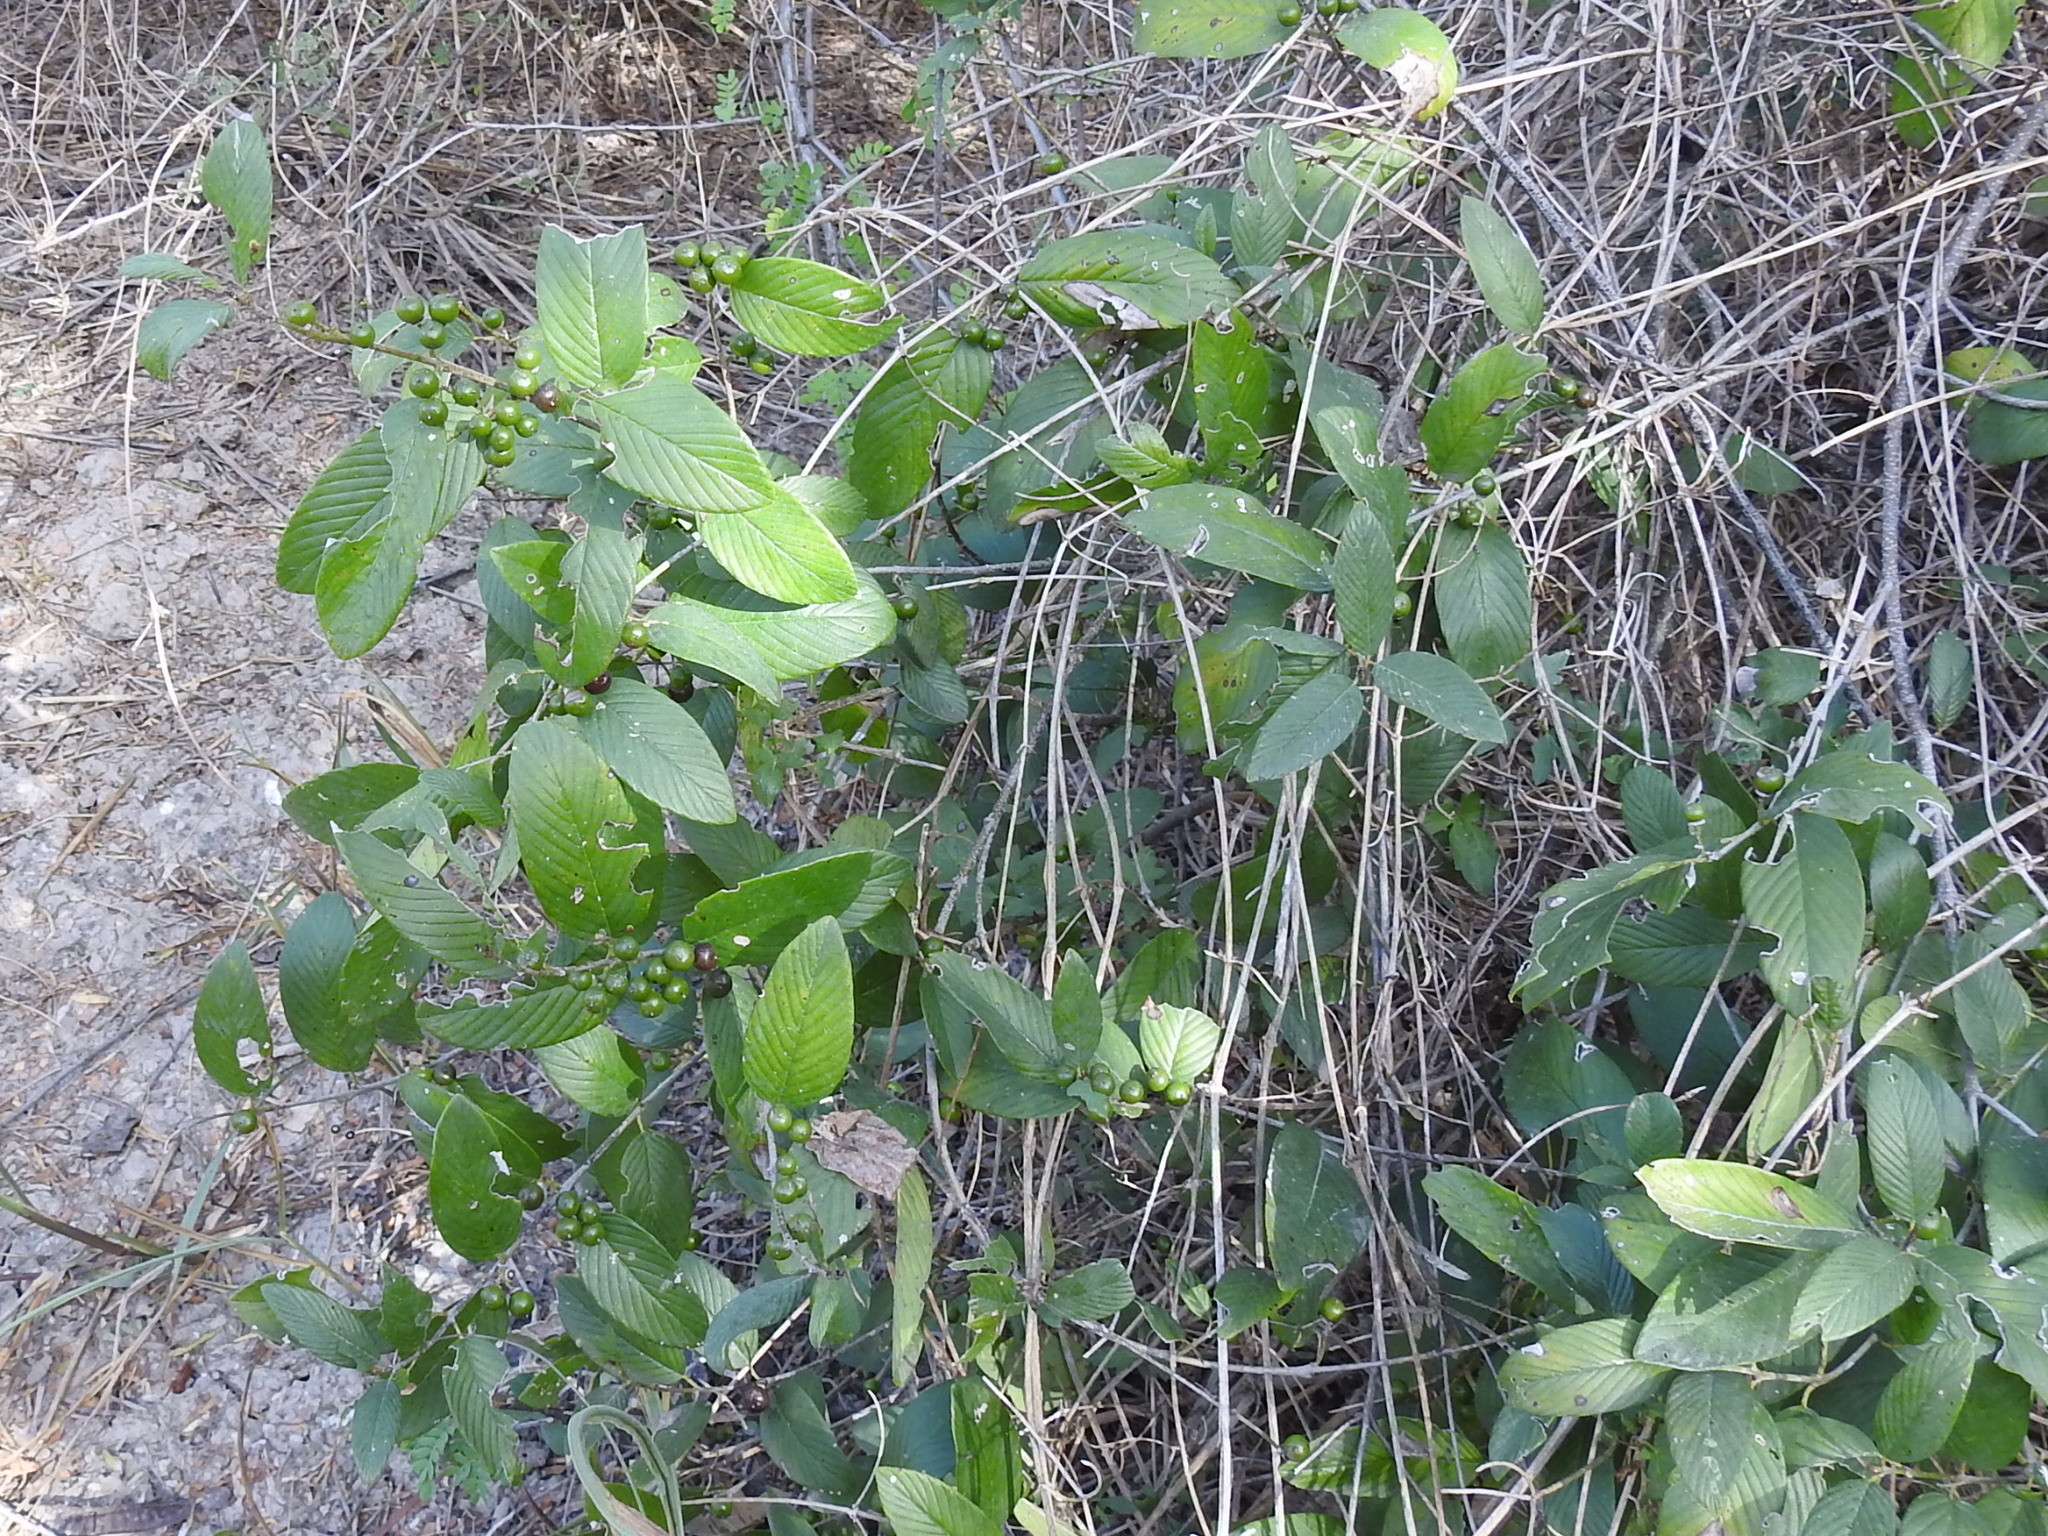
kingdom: Plantae
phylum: Tracheophyta
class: Magnoliopsida
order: Rosales
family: Rhamnaceae
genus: Karwinskia
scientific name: Karwinskia humboldtiana
